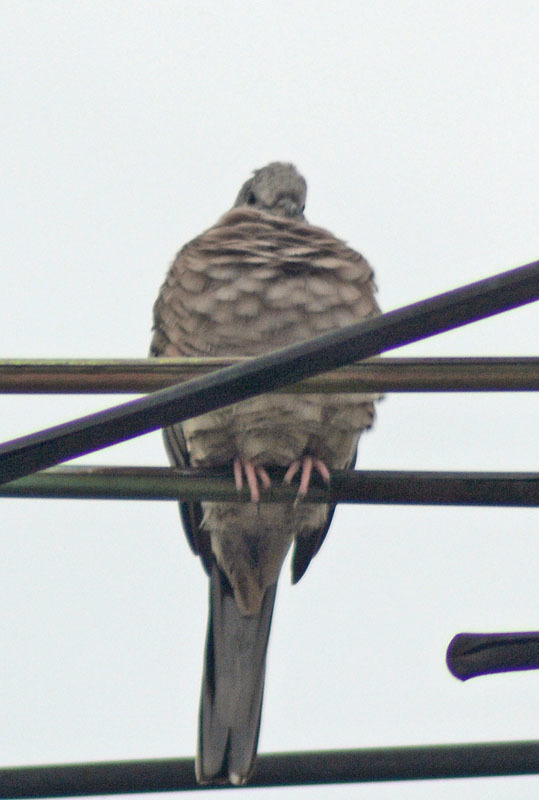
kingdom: Animalia
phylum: Chordata
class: Aves
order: Columbiformes
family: Columbidae
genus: Columbina
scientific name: Columbina inca
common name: Inca dove
